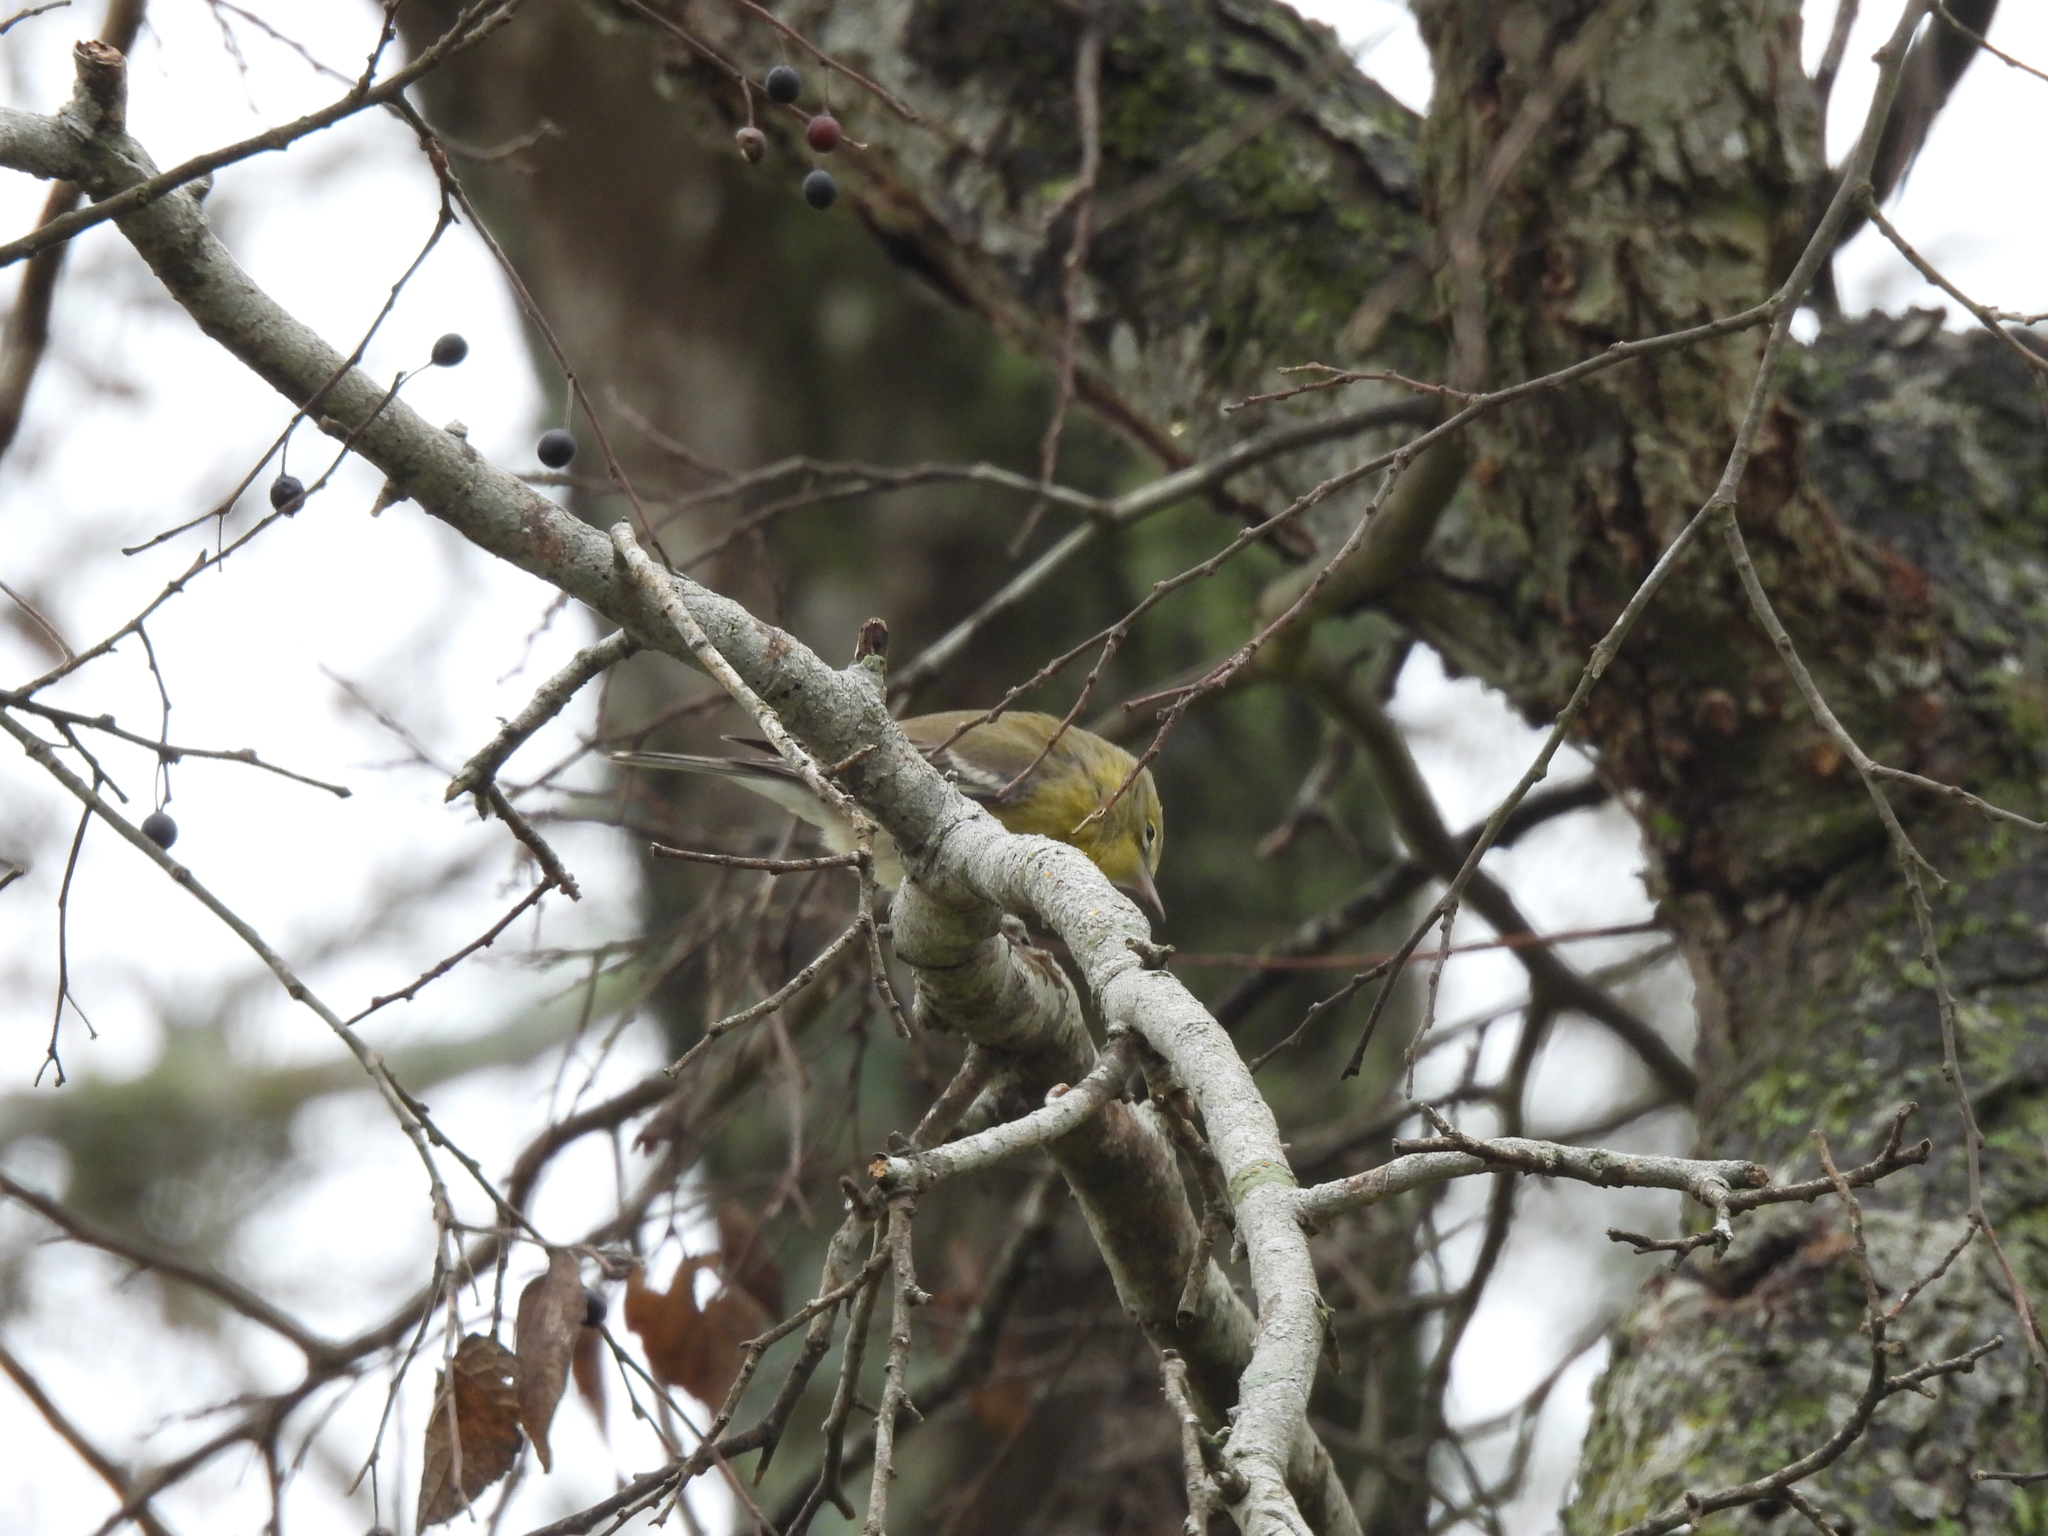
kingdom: Animalia
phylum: Chordata
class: Aves
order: Passeriformes
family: Parulidae
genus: Setophaga
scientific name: Setophaga pinus
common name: Pine warbler
